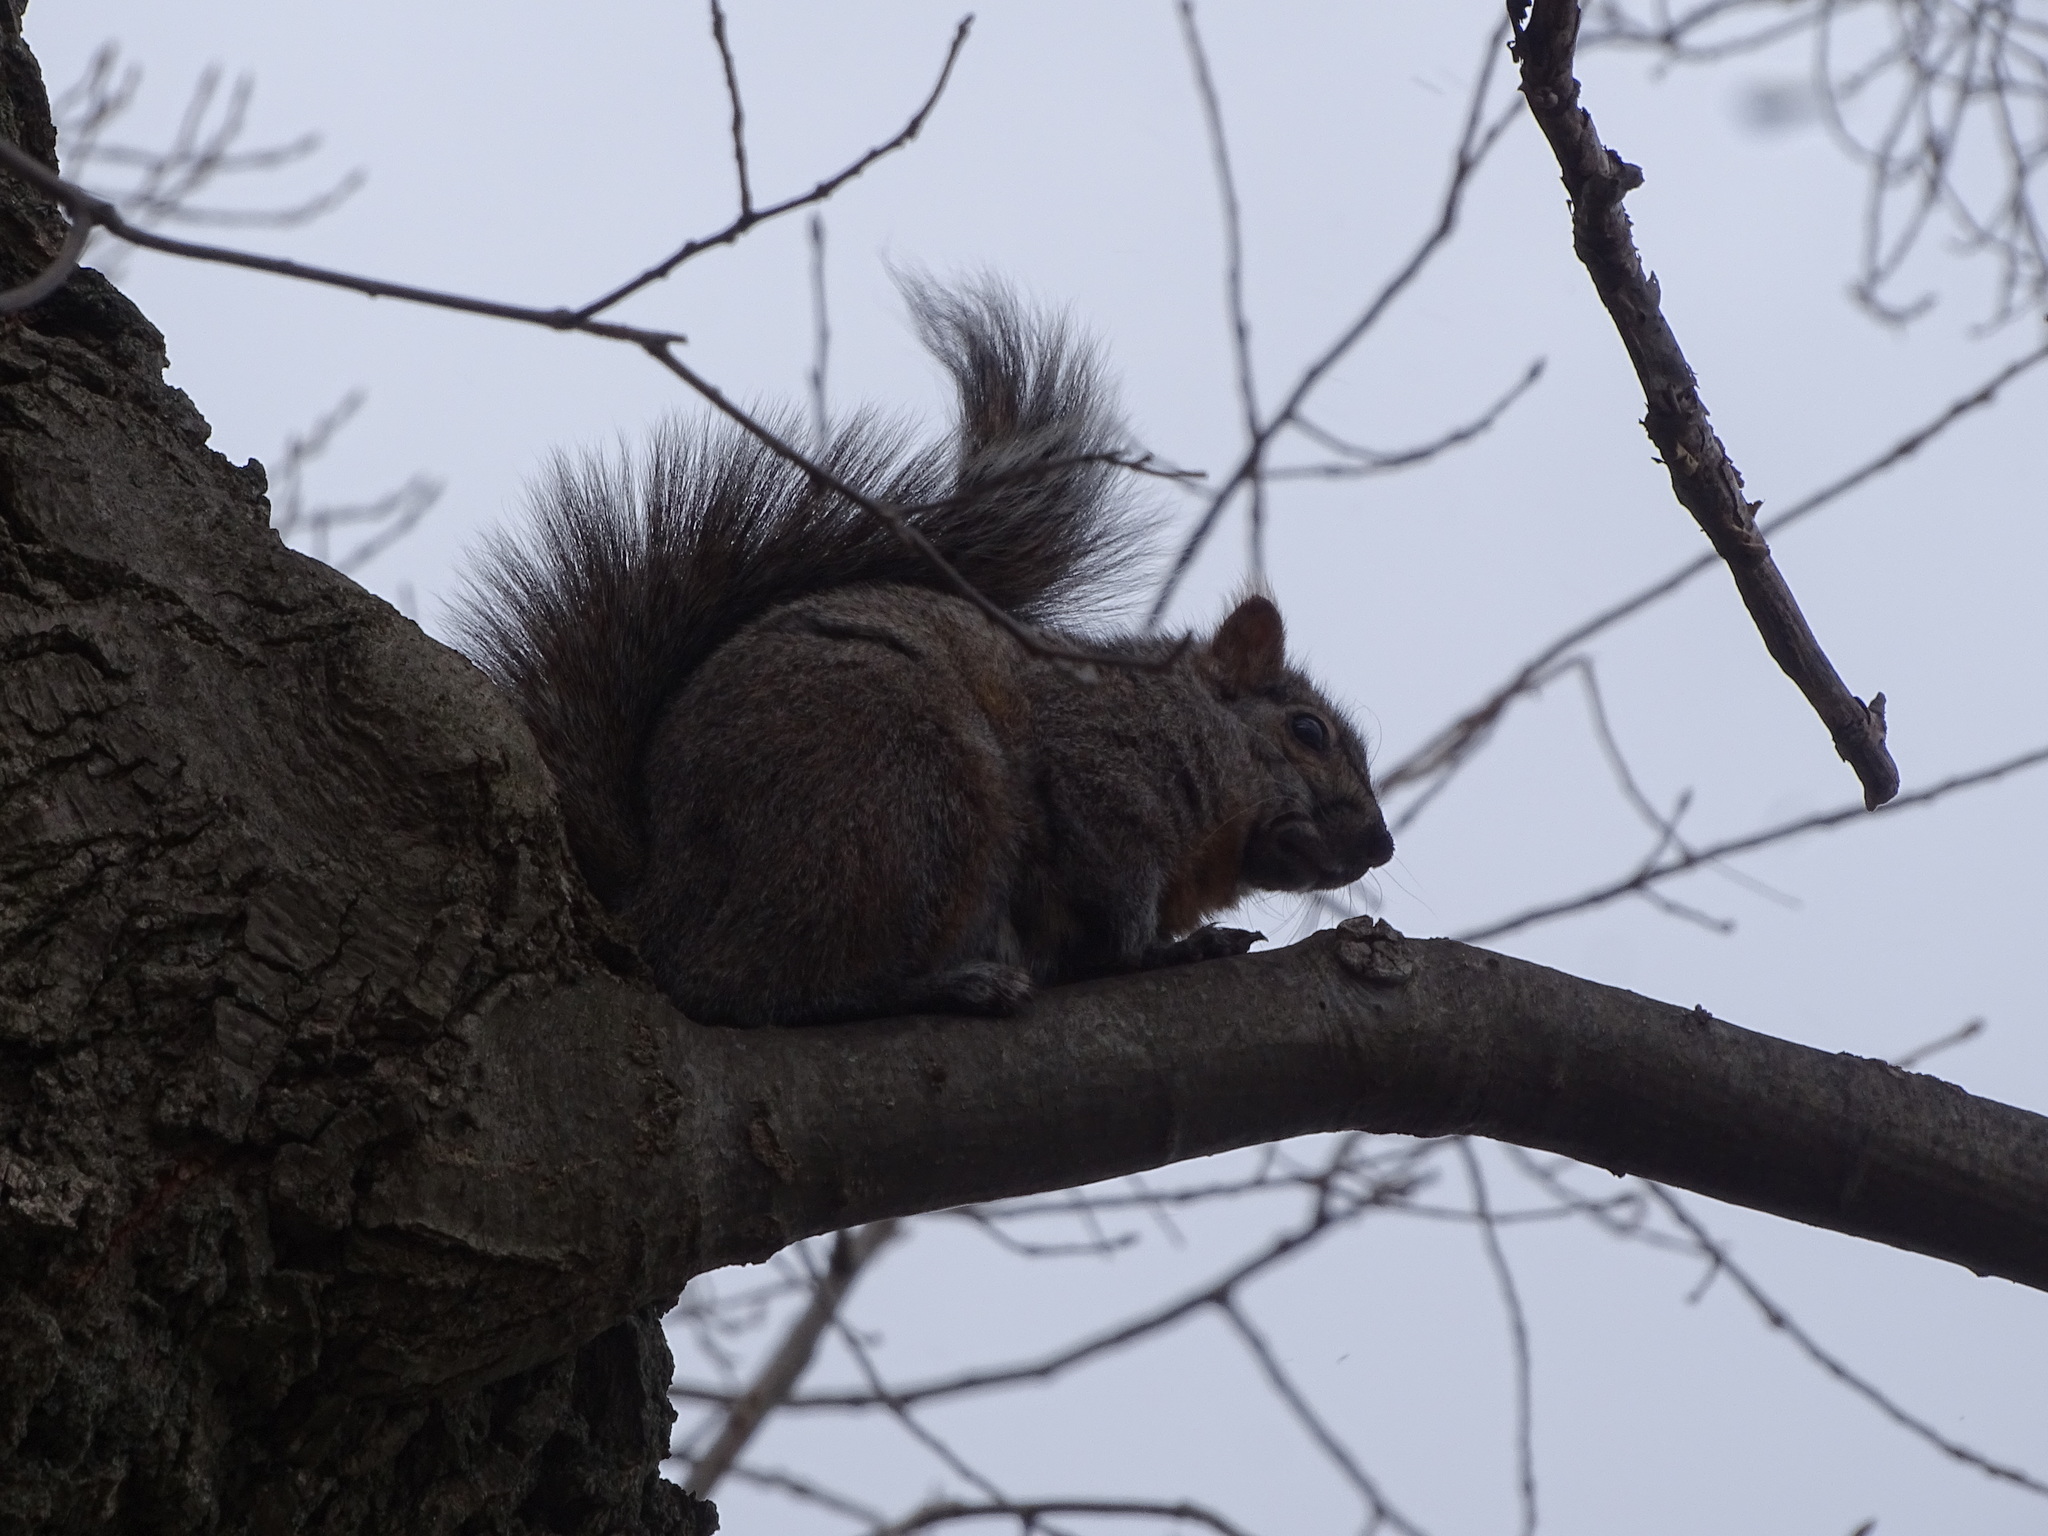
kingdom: Animalia
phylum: Chordata
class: Mammalia
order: Rodentia
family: Sciuridae
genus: Sciurus
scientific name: Sciurus carolinensis
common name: Eastern gray squirrel
